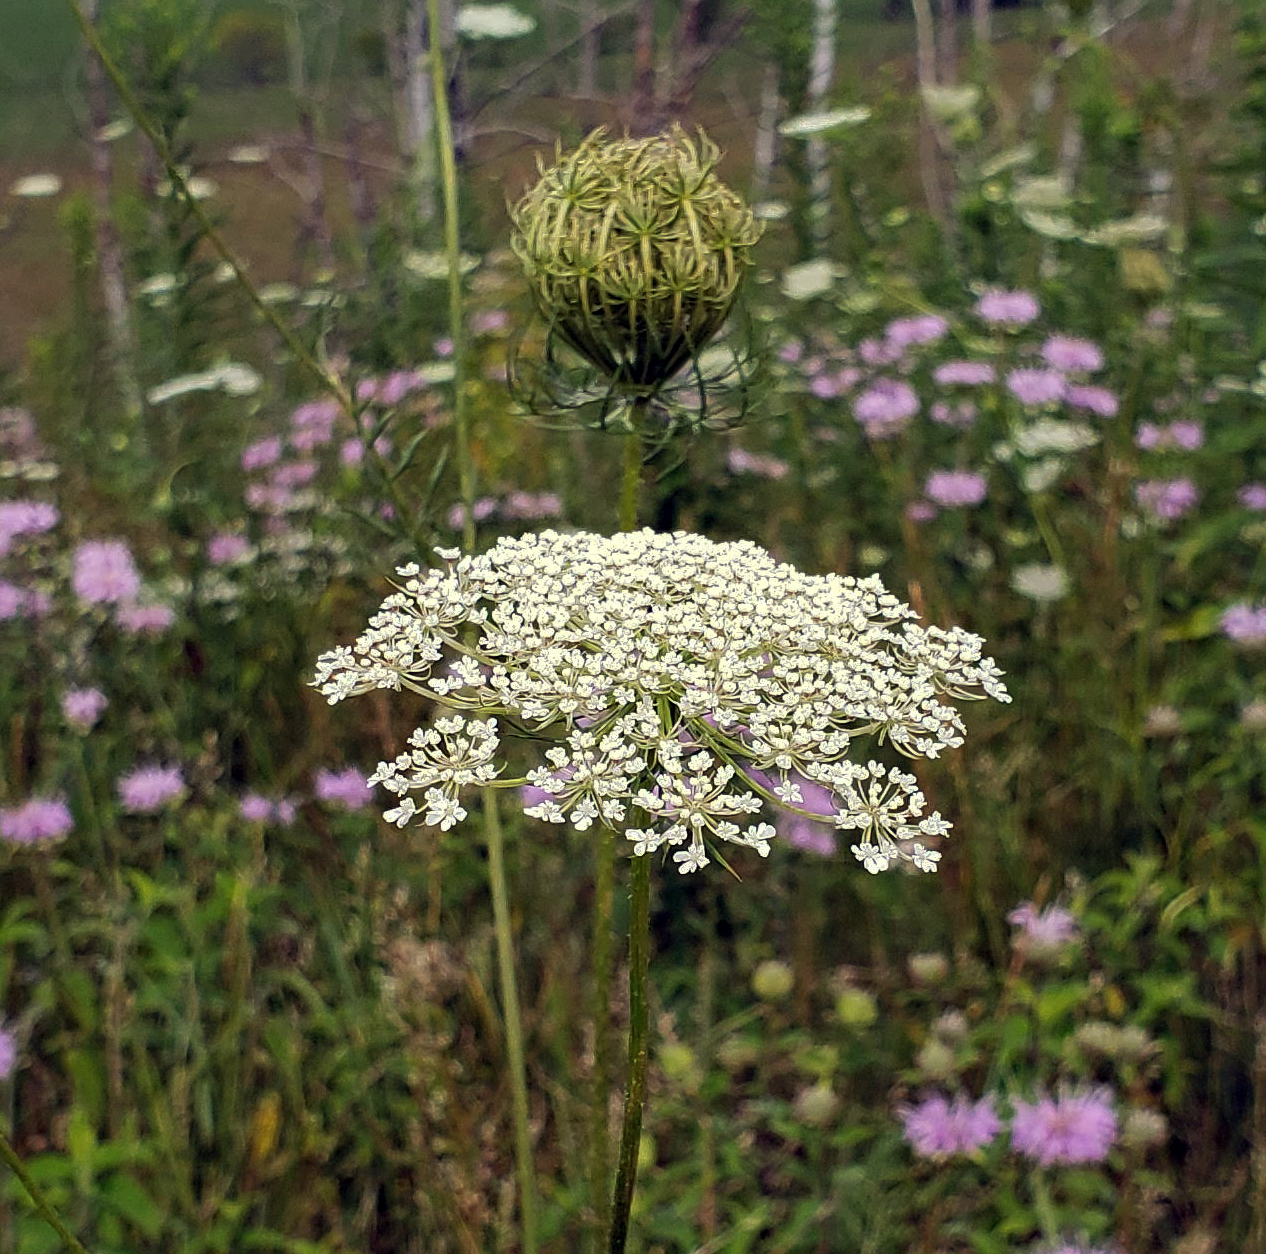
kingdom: Plantae
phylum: Tracheophyta
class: Magnoliopsida
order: Apiales
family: Apiaceae
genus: Daucus
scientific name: Daucus carota
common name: Wild carrot
